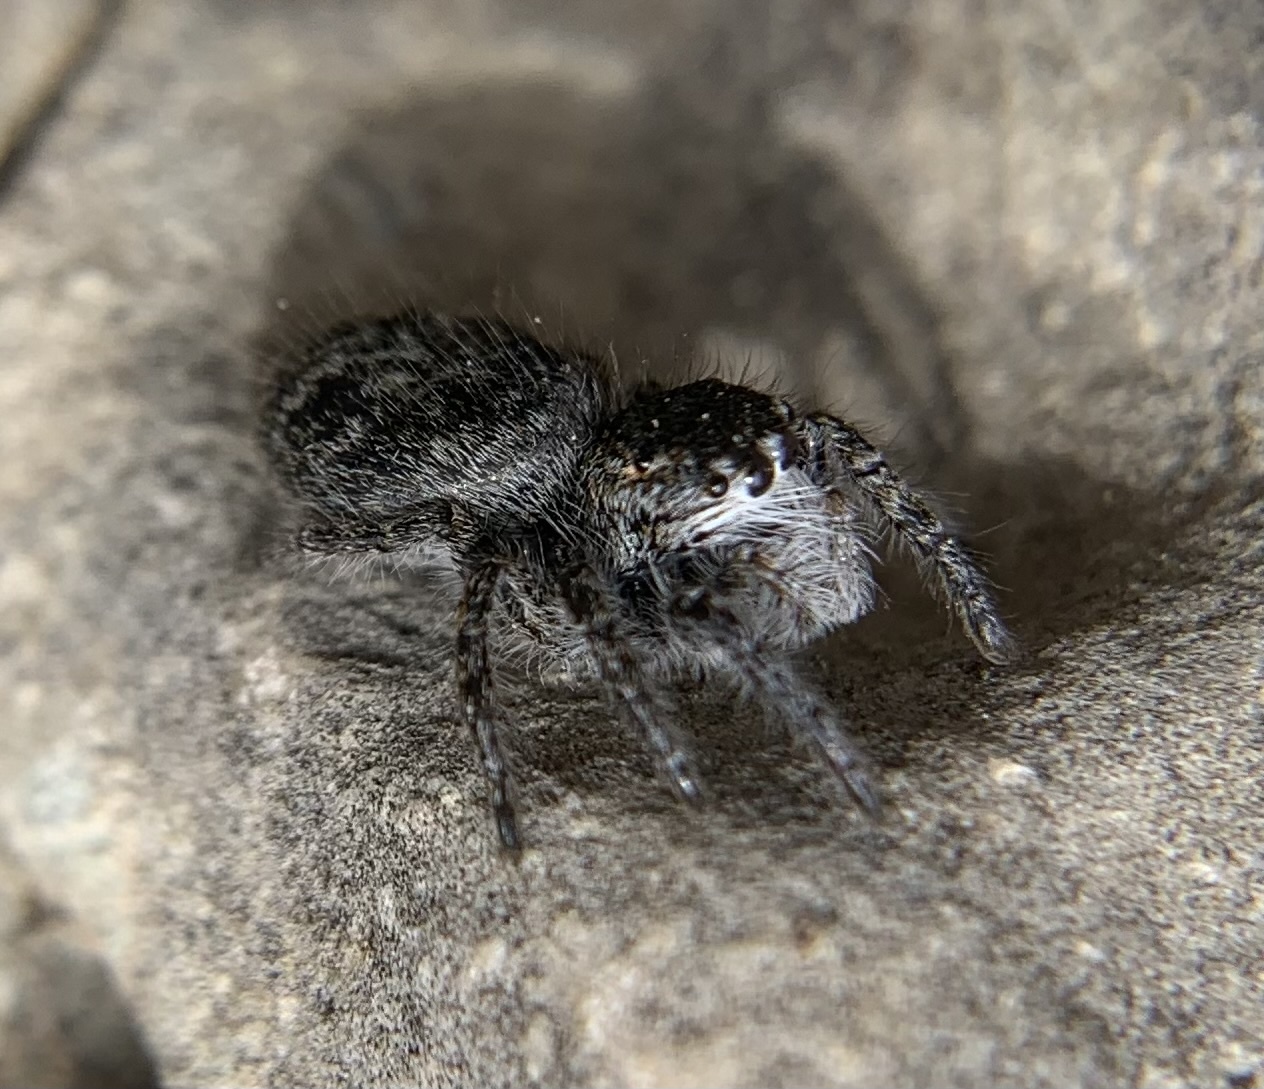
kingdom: Animalia
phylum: Arthropoda
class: Arachnida
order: Araneae
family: Salticidae
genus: Philaeus
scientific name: Philaeus chrysops
